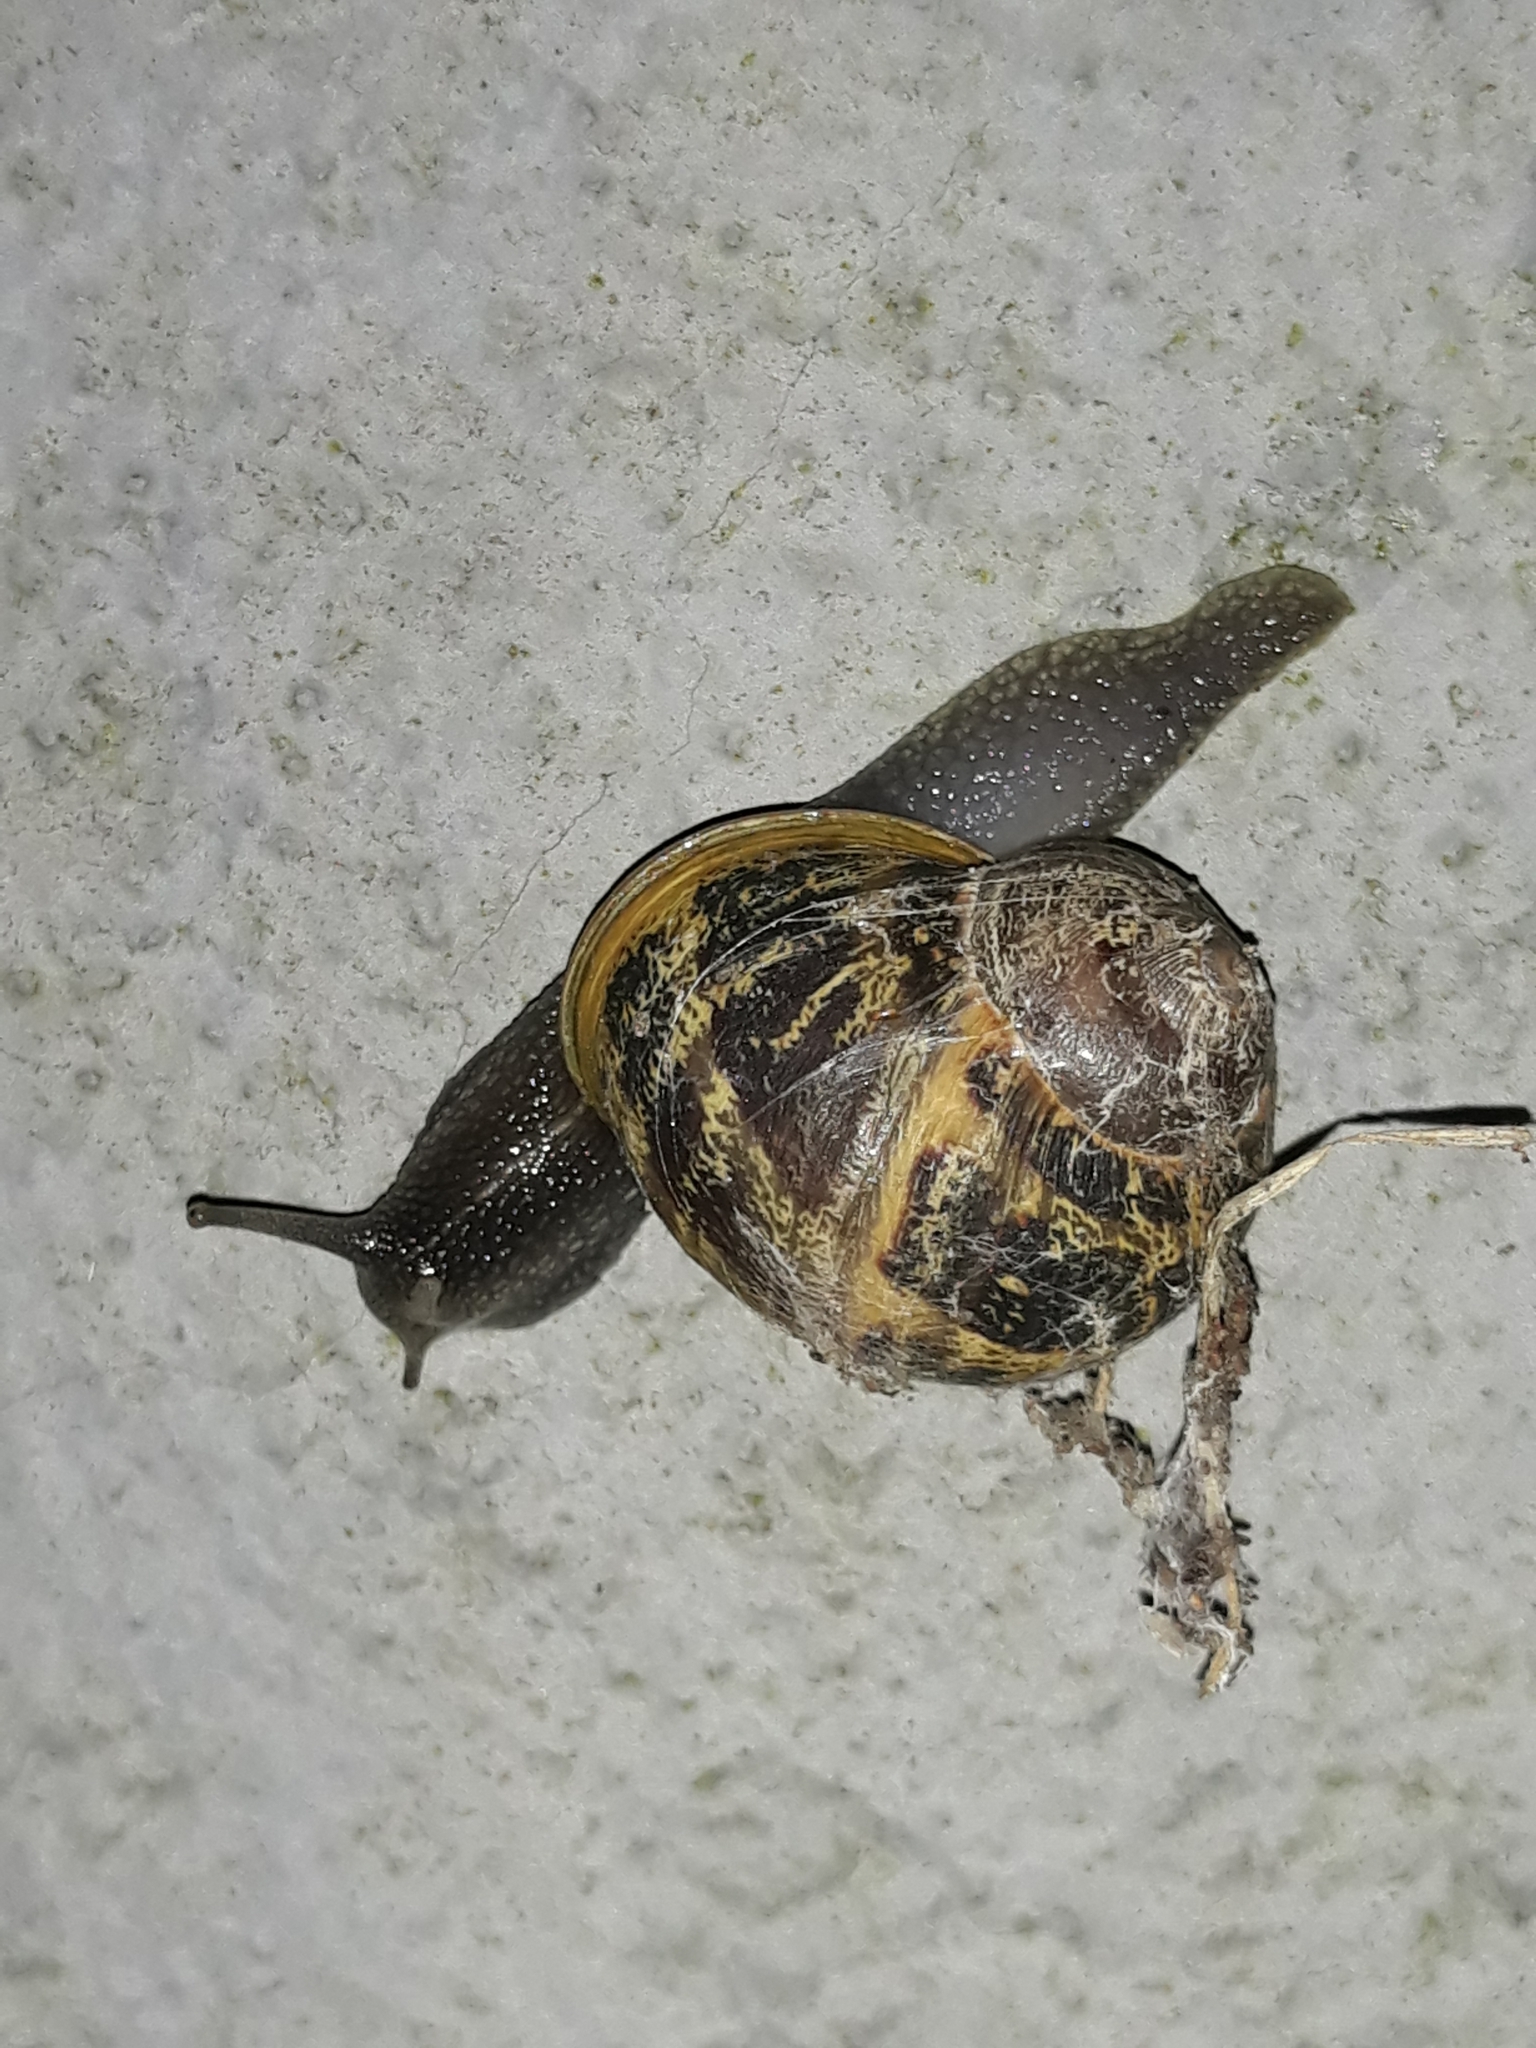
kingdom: Animalia
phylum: Mollusca
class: Gastropoda
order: Stylommatophora
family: Helicidae
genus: Cornu
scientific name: Cornu aspersum
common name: Brown garden snail
